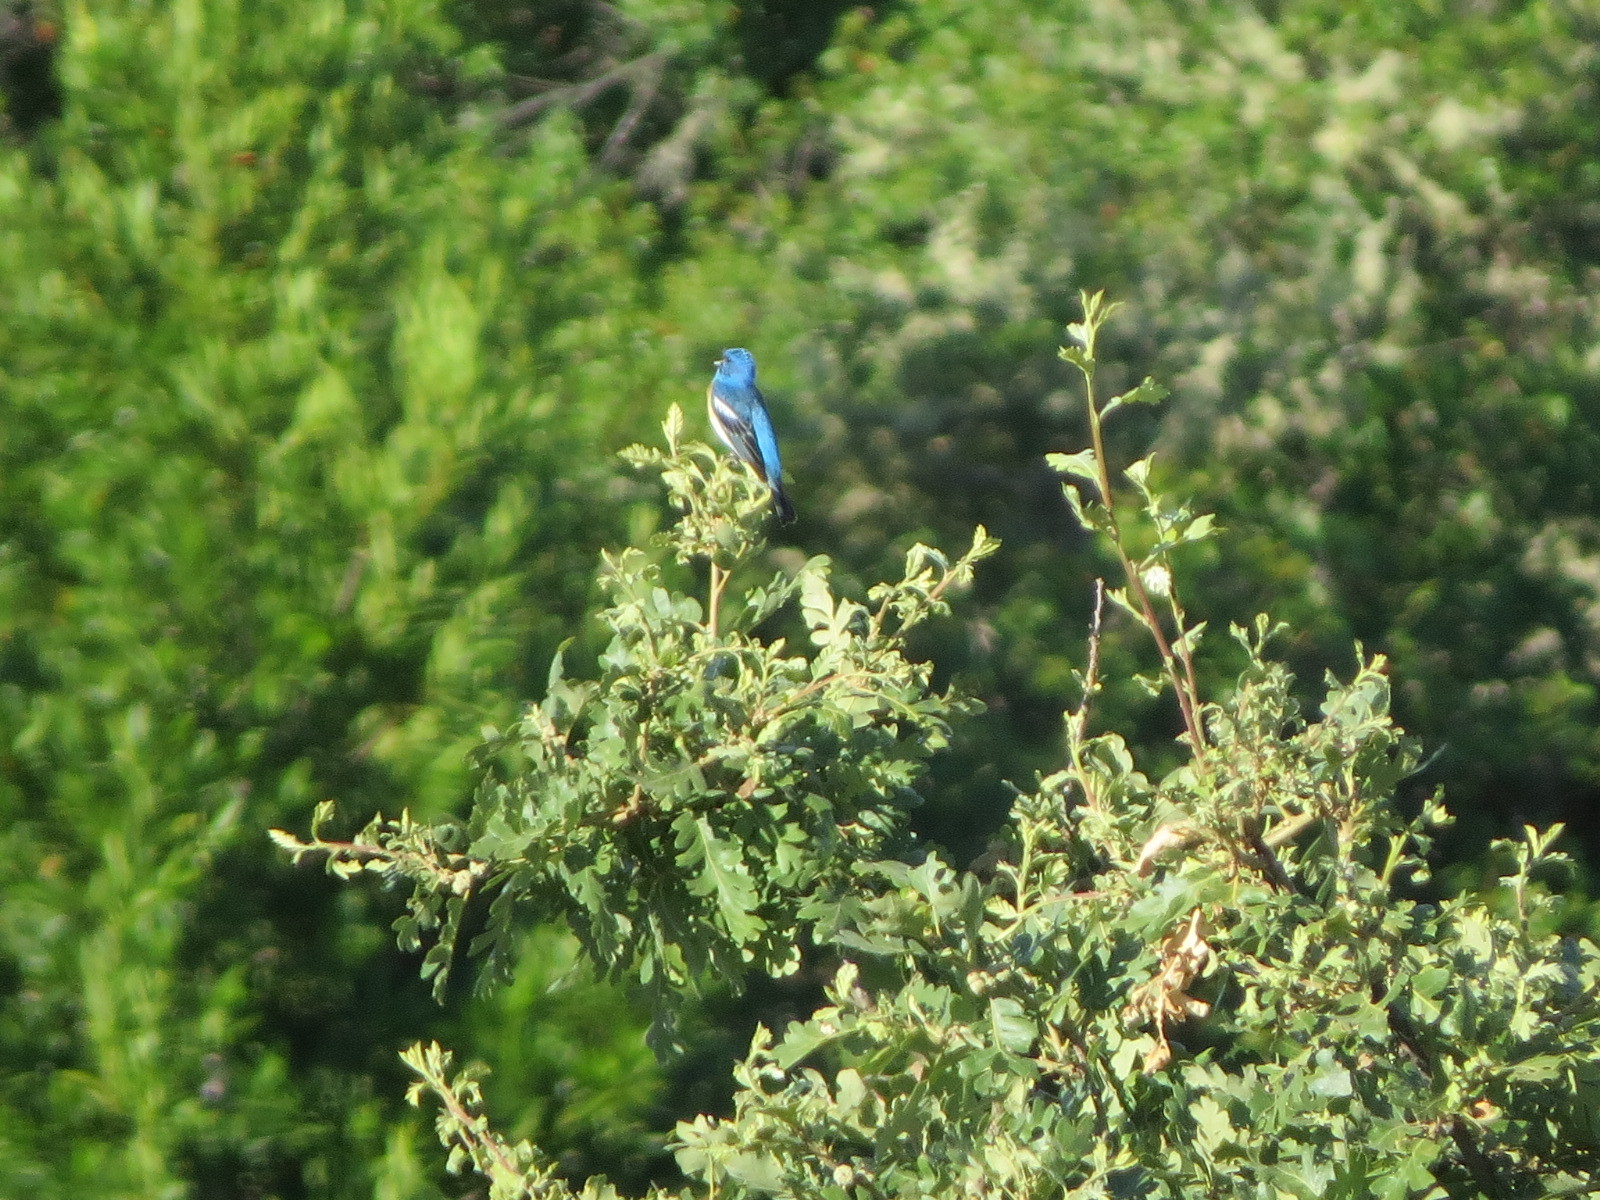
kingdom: Animalia
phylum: Chordata
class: Aves
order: Passeriformes
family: Cardinalidae
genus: Passerina
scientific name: Passerina amoena
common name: Lazuli bunting
